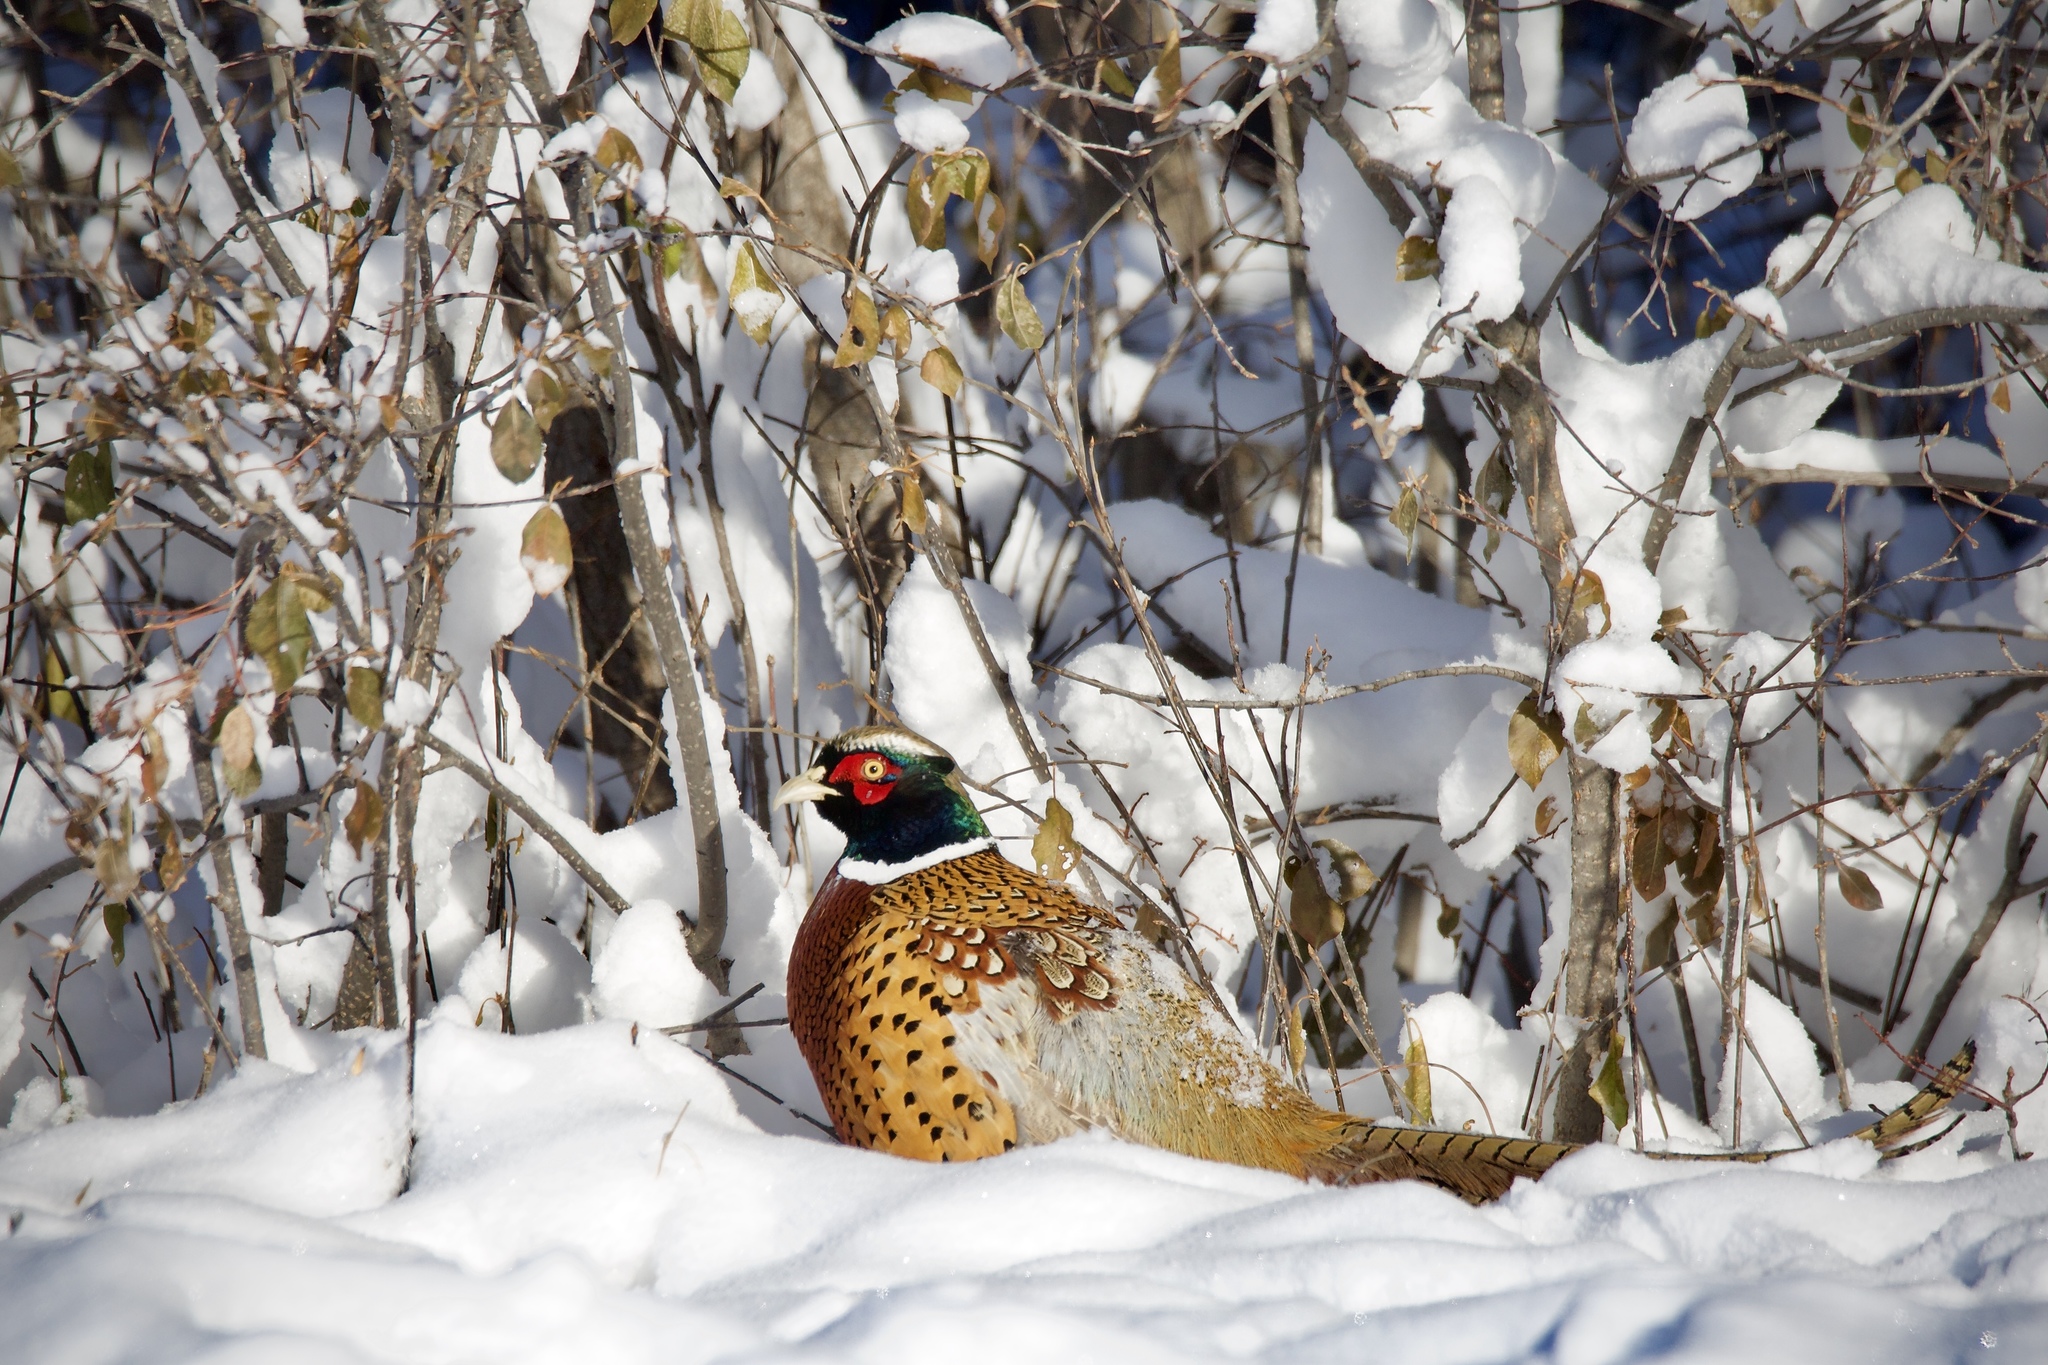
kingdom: Animalia
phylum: Chordata
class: Aves
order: Galliformes
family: Phasianidae
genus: Phasianus
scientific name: Phasianus colchicus
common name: Common pheasant
